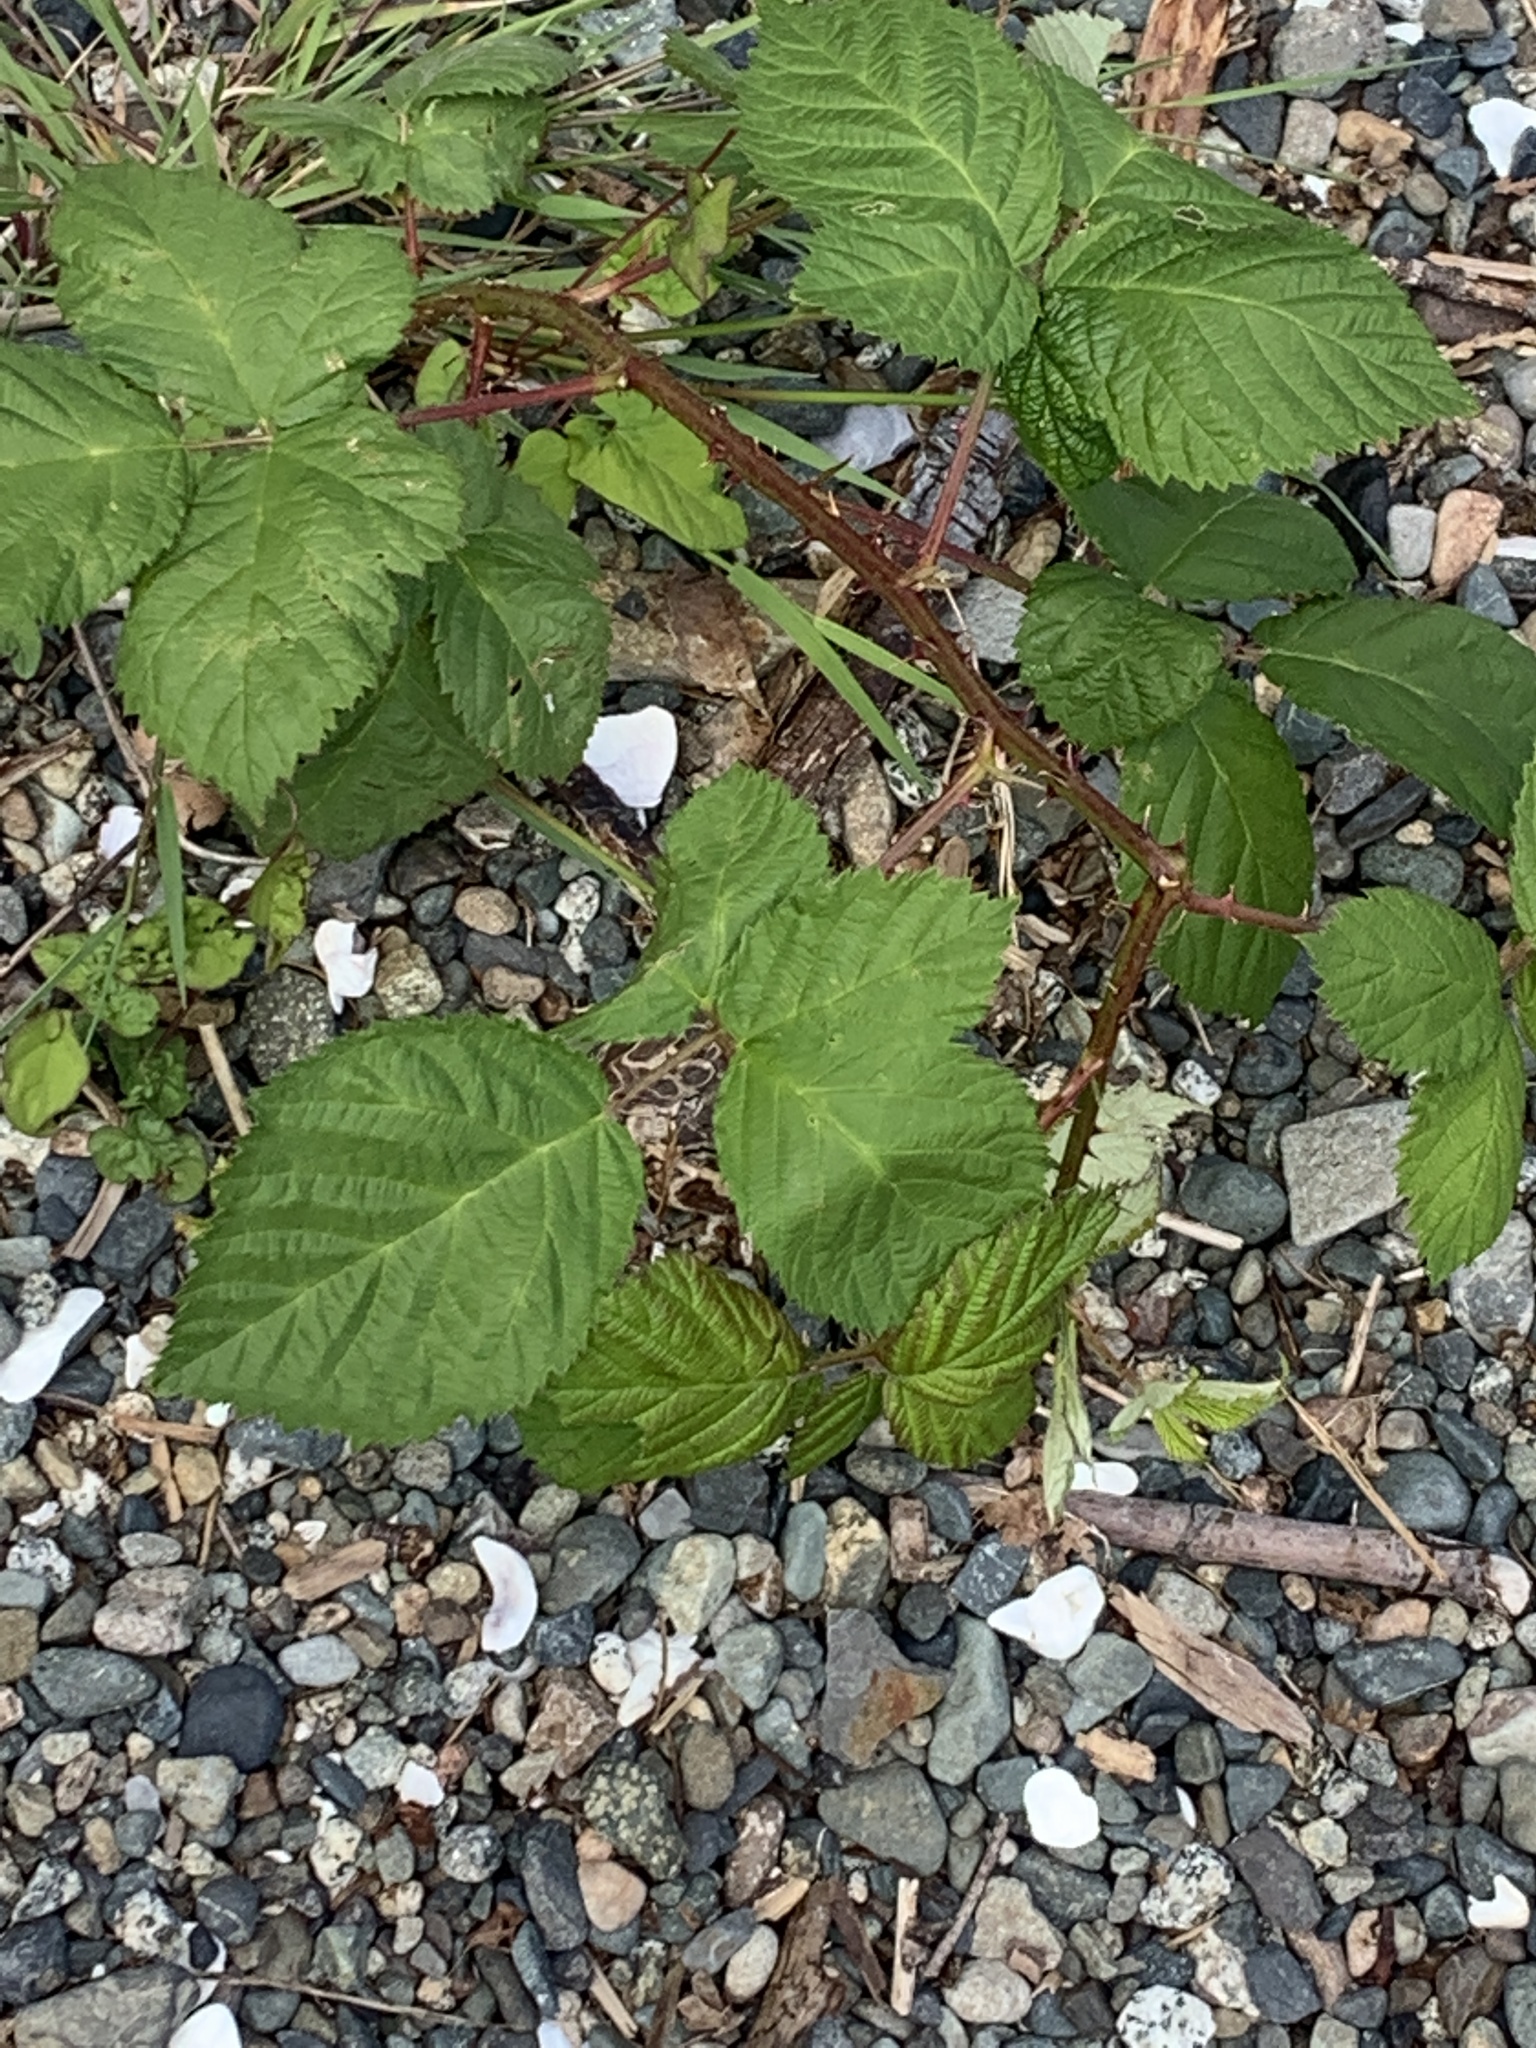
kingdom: Plantae
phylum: Tracheophyta
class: Magnoliopsida
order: Rosales
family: Rosaceae
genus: Rubus
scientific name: Rubus bifrons
